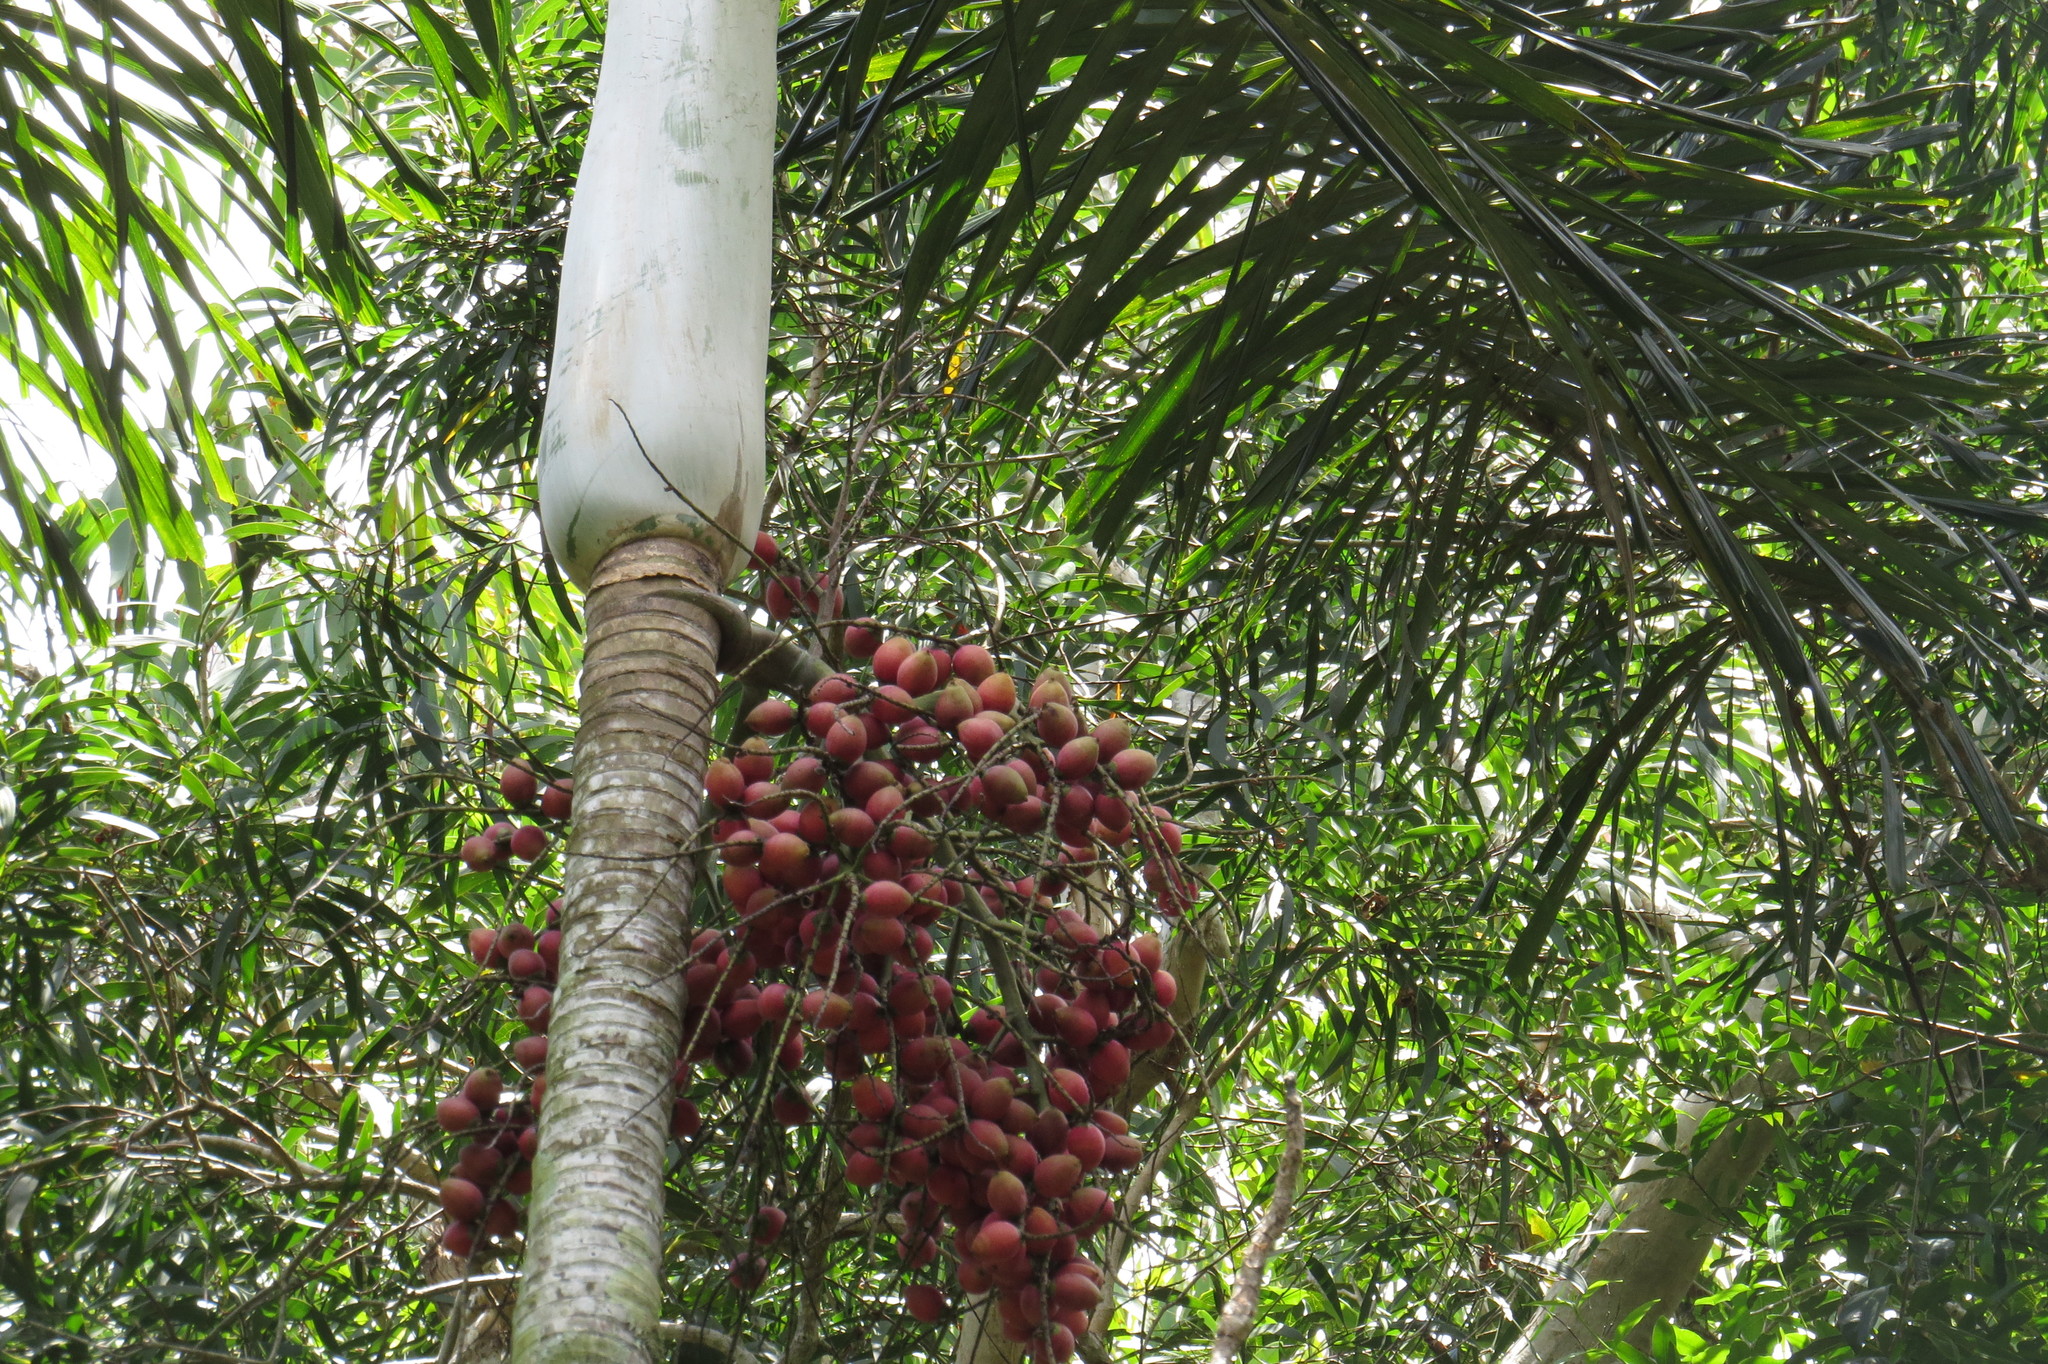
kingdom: Plantae
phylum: Tracheophyta
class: Liliopsida
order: Arecales
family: Arecaceae
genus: Normanbya
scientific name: Normanbya normanbyi
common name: Black palm
